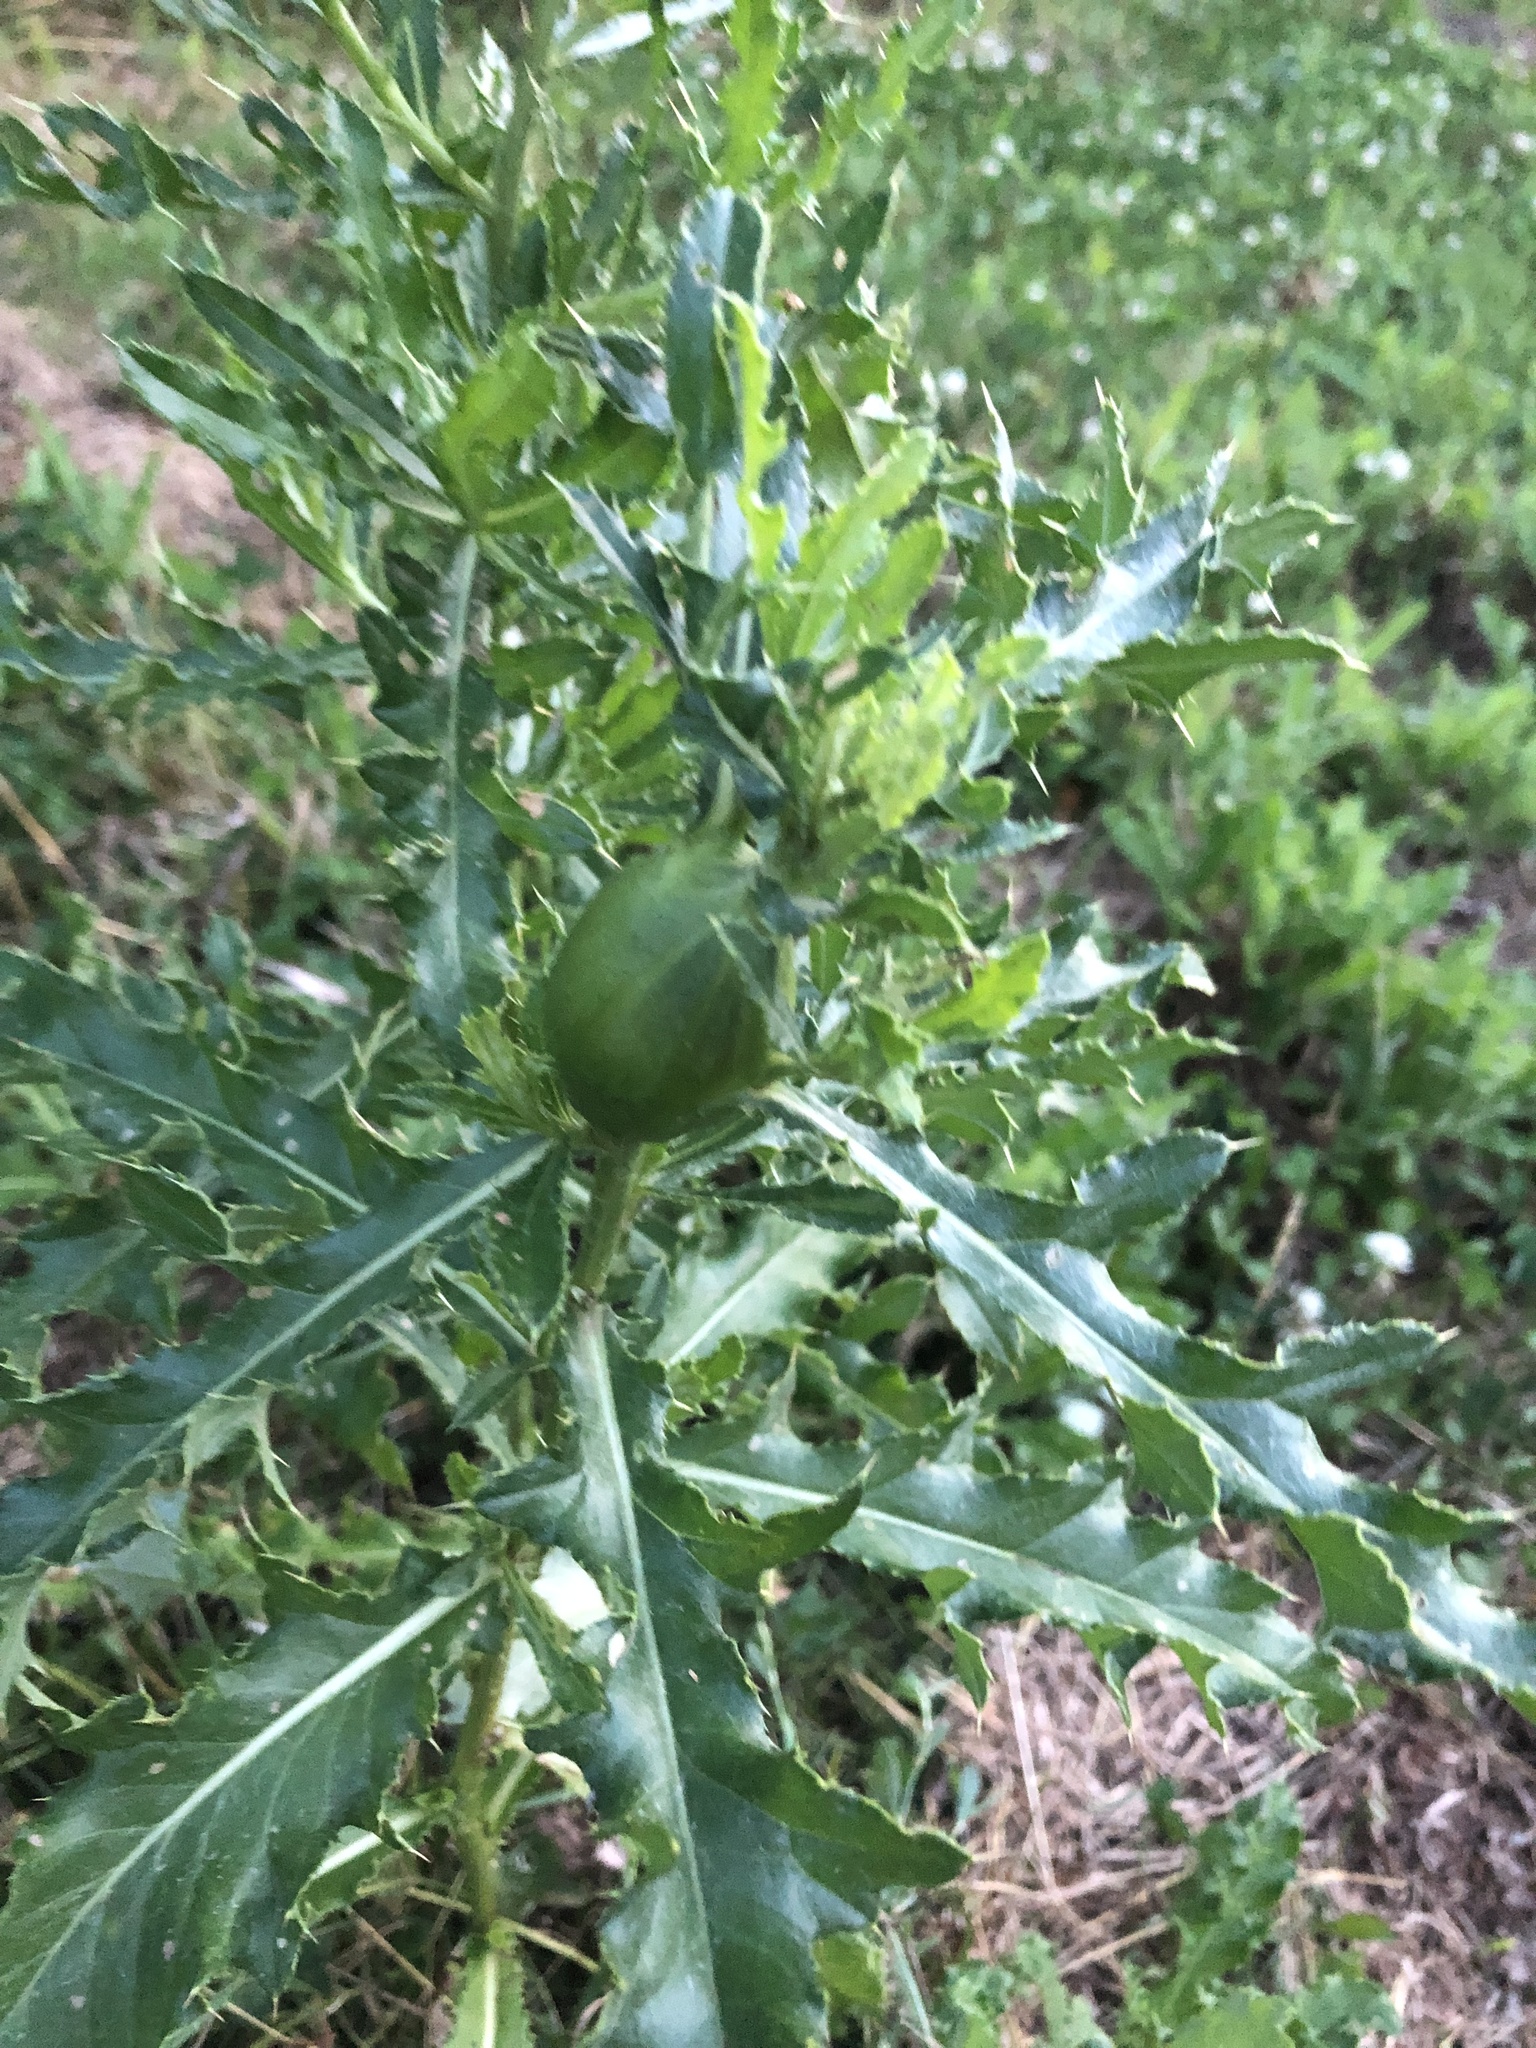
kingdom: Plantae
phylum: Tracheophyta
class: Magnoliopsida
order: Asterales
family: Asteraceae
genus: Cirsium
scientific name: Cirsium arvense
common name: Creeping thistle
